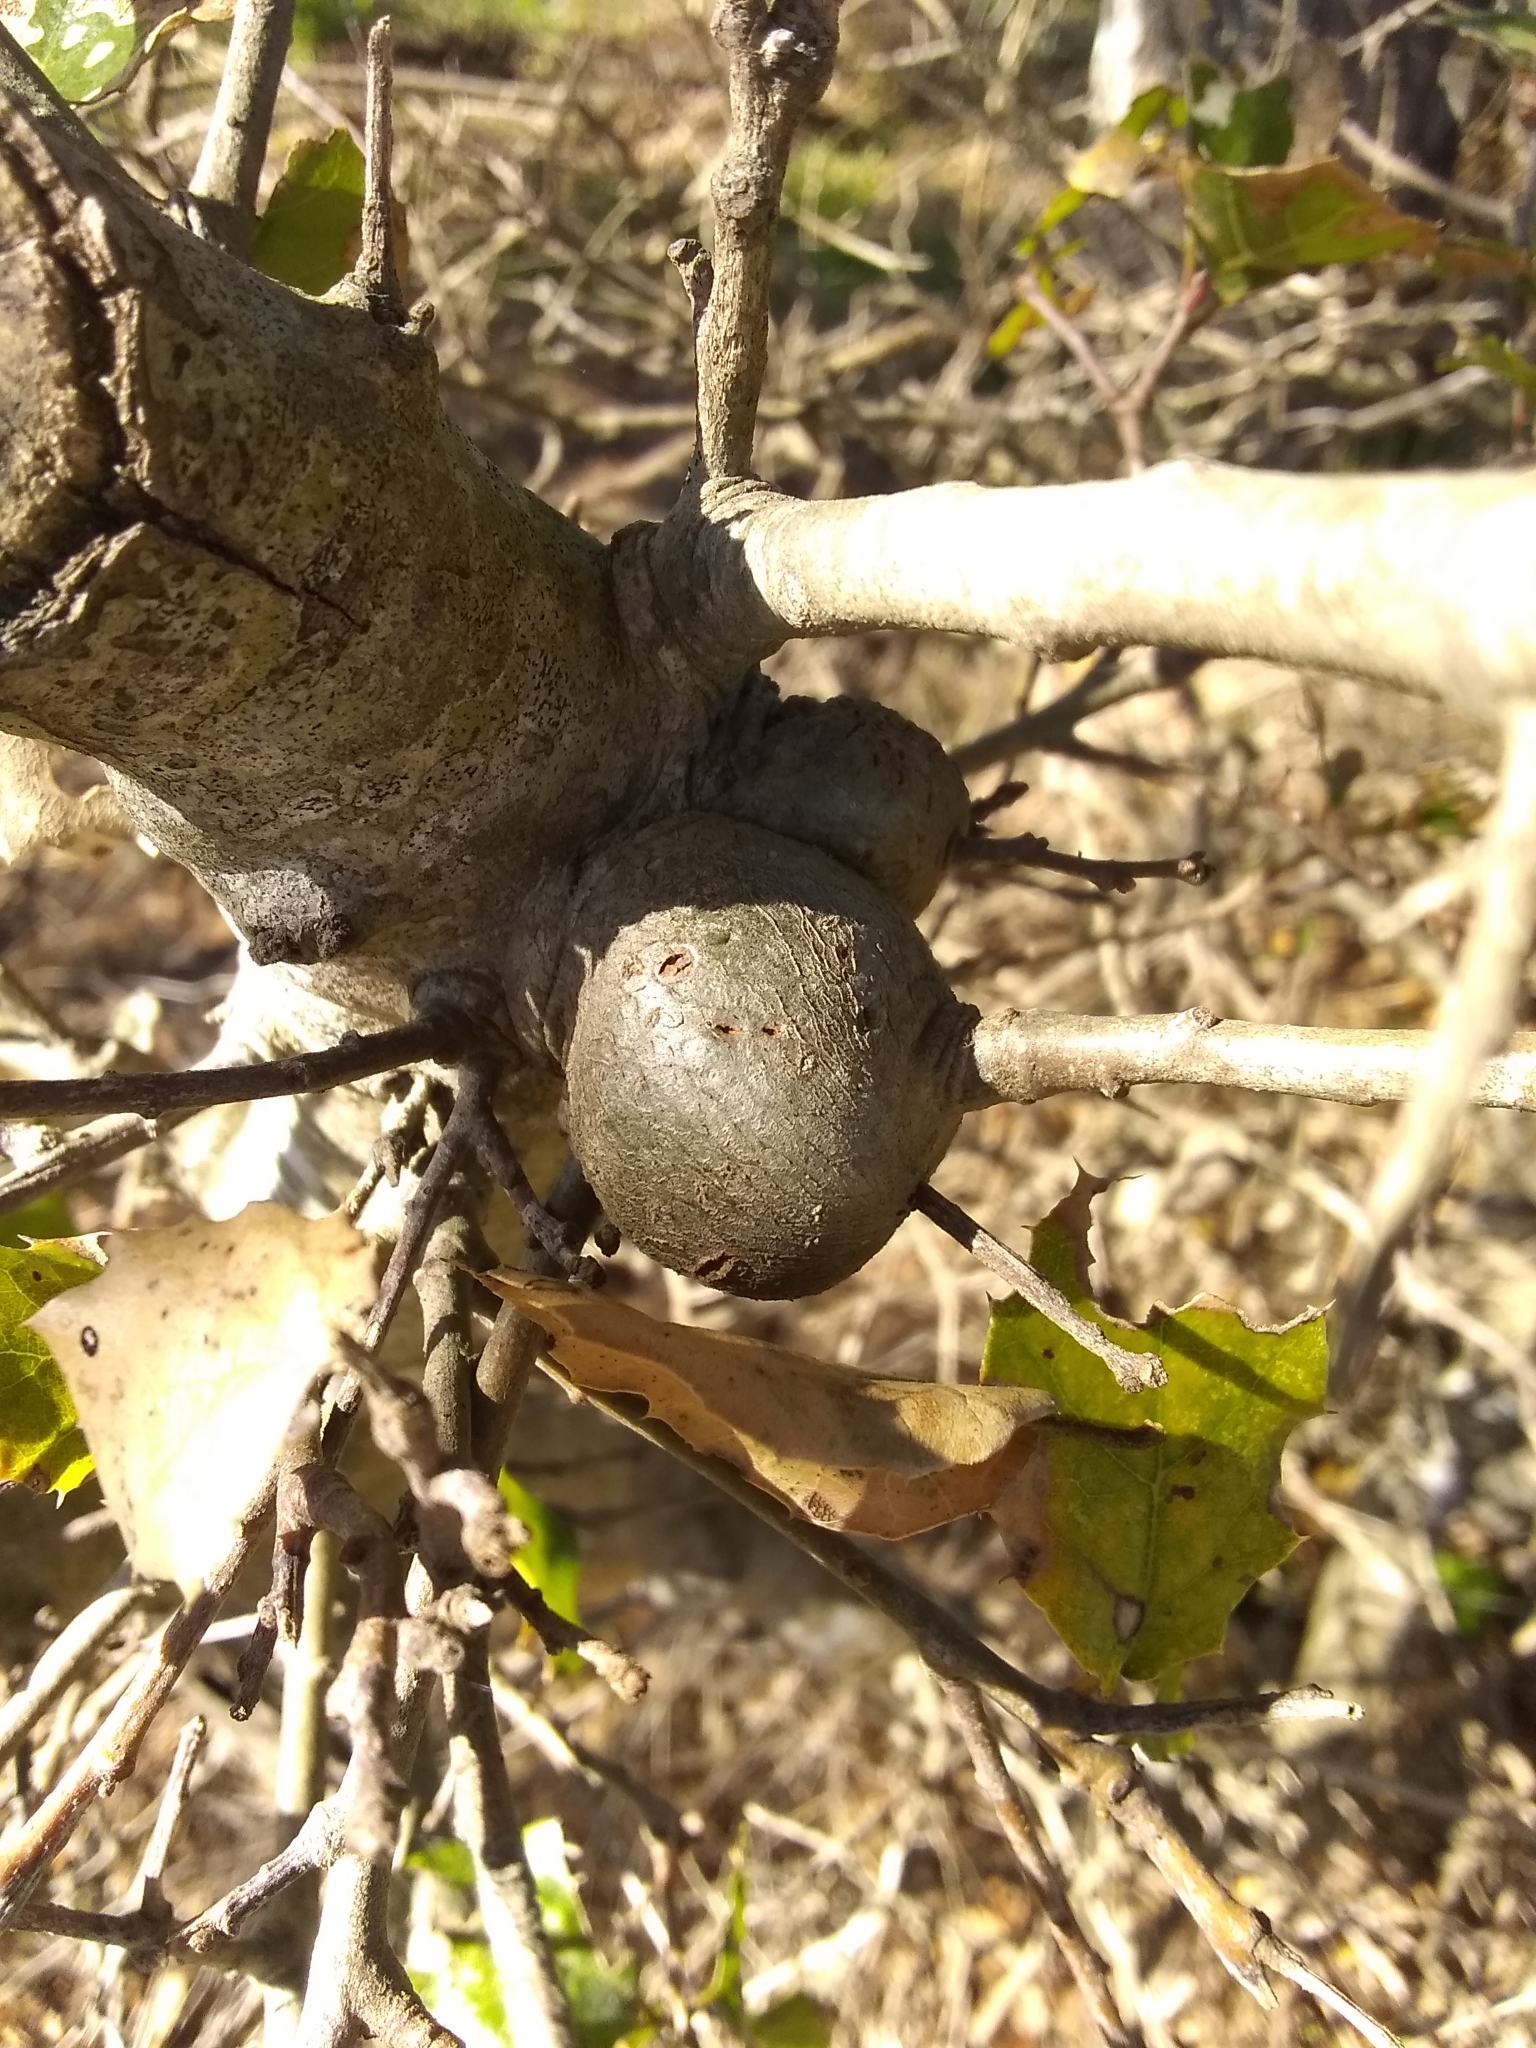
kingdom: Animalia
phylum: Arthropoda
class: Insecta
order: Hymenoptera
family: Cynipidae
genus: Callirhytis
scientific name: Callirhytis
